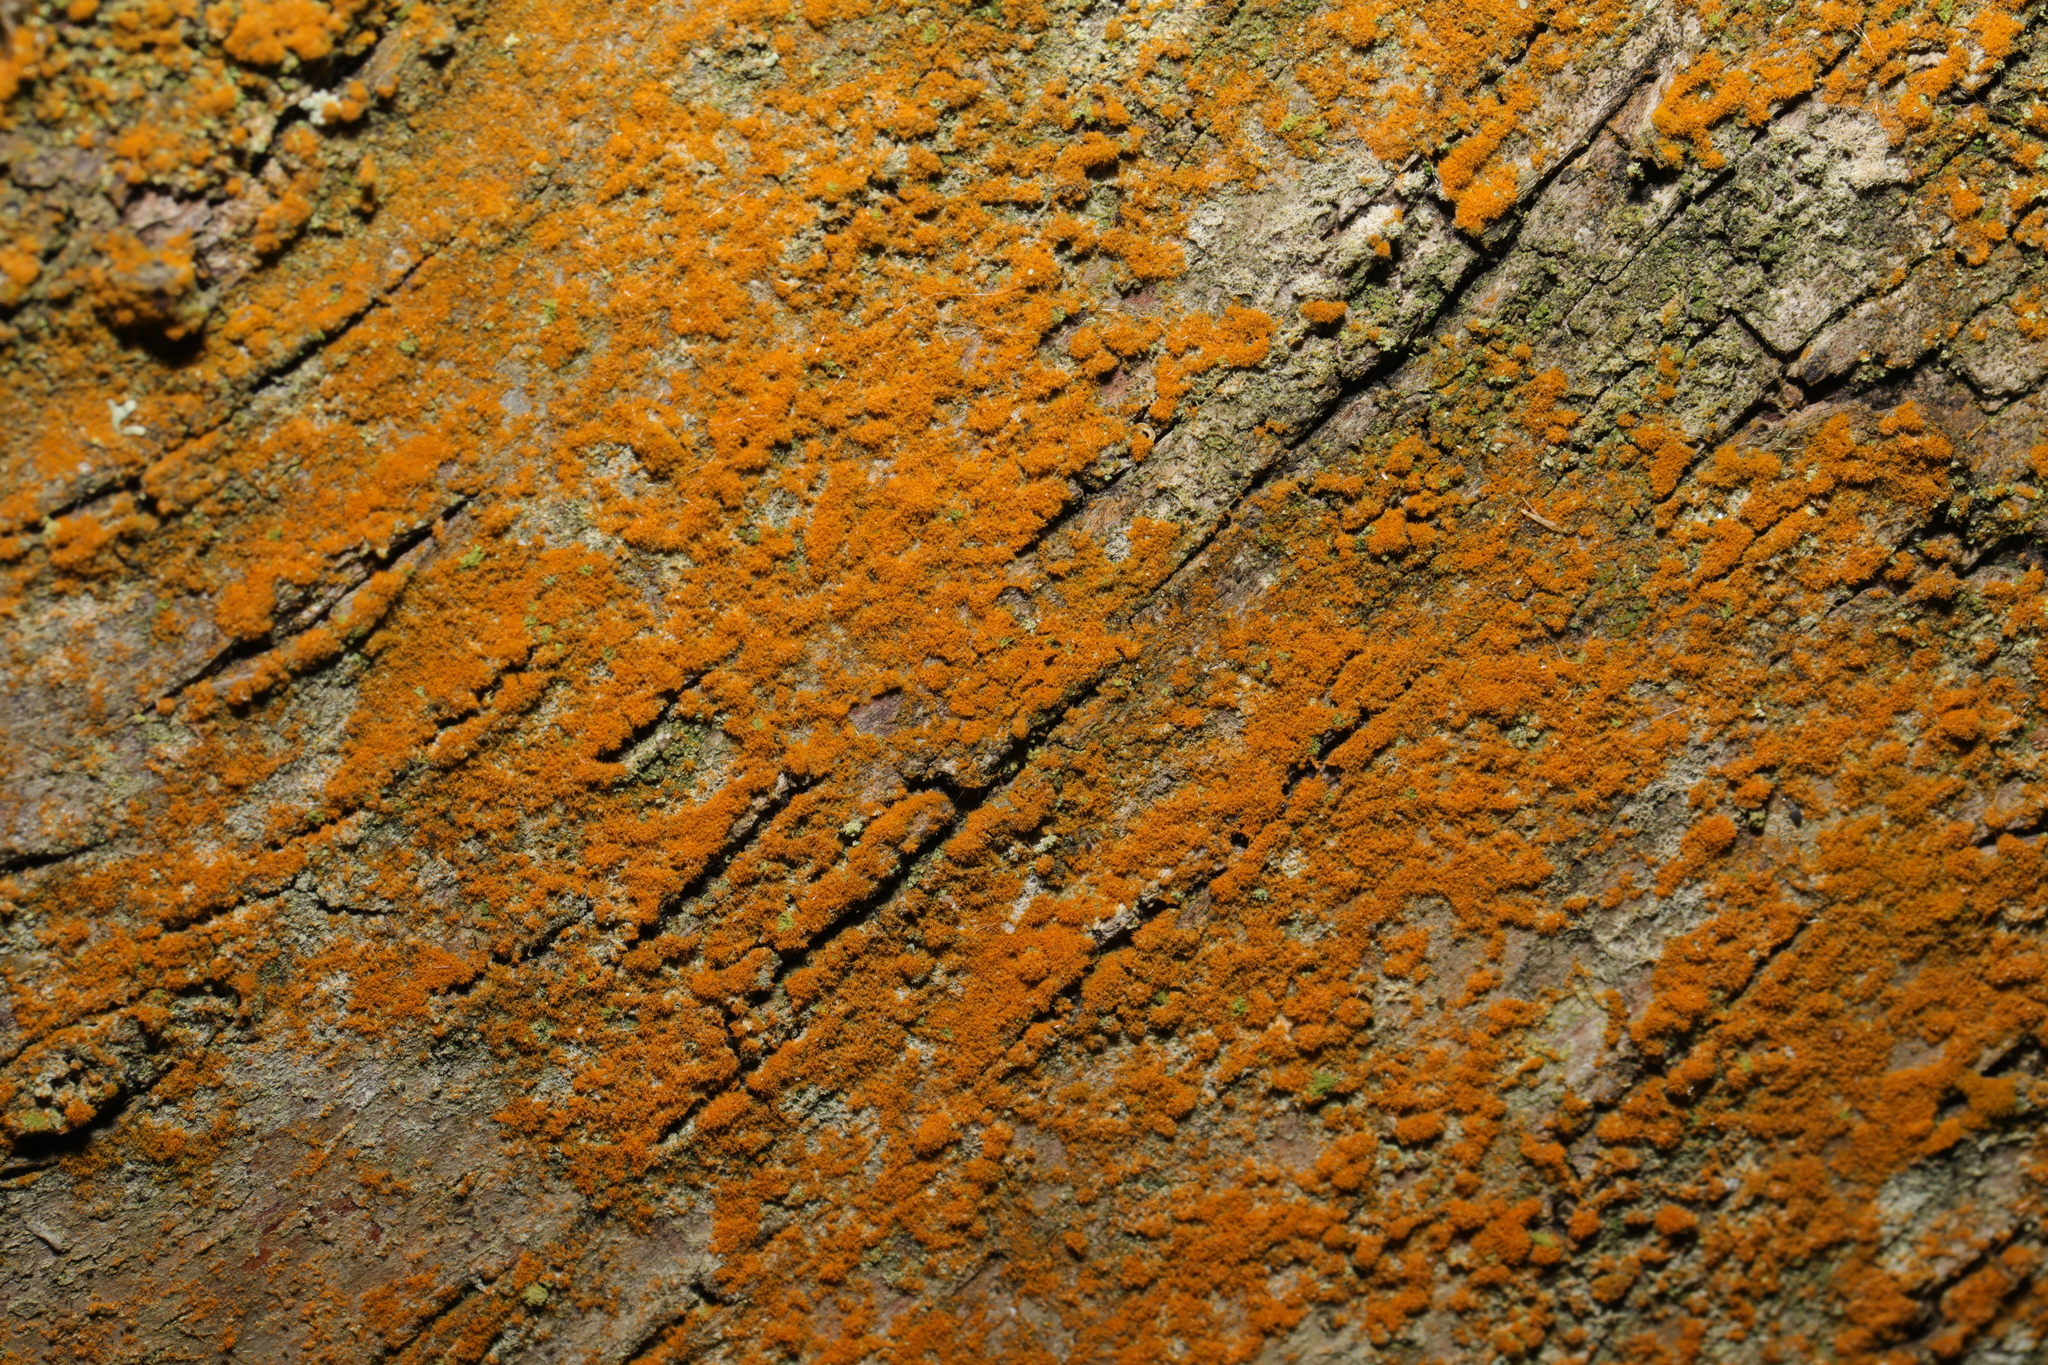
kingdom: Plantae
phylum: Chlorophyta
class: Ulvophyceae
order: Trentepohliales
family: Trentepohliaceae
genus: Trentepohlia
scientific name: Trentepohlia
